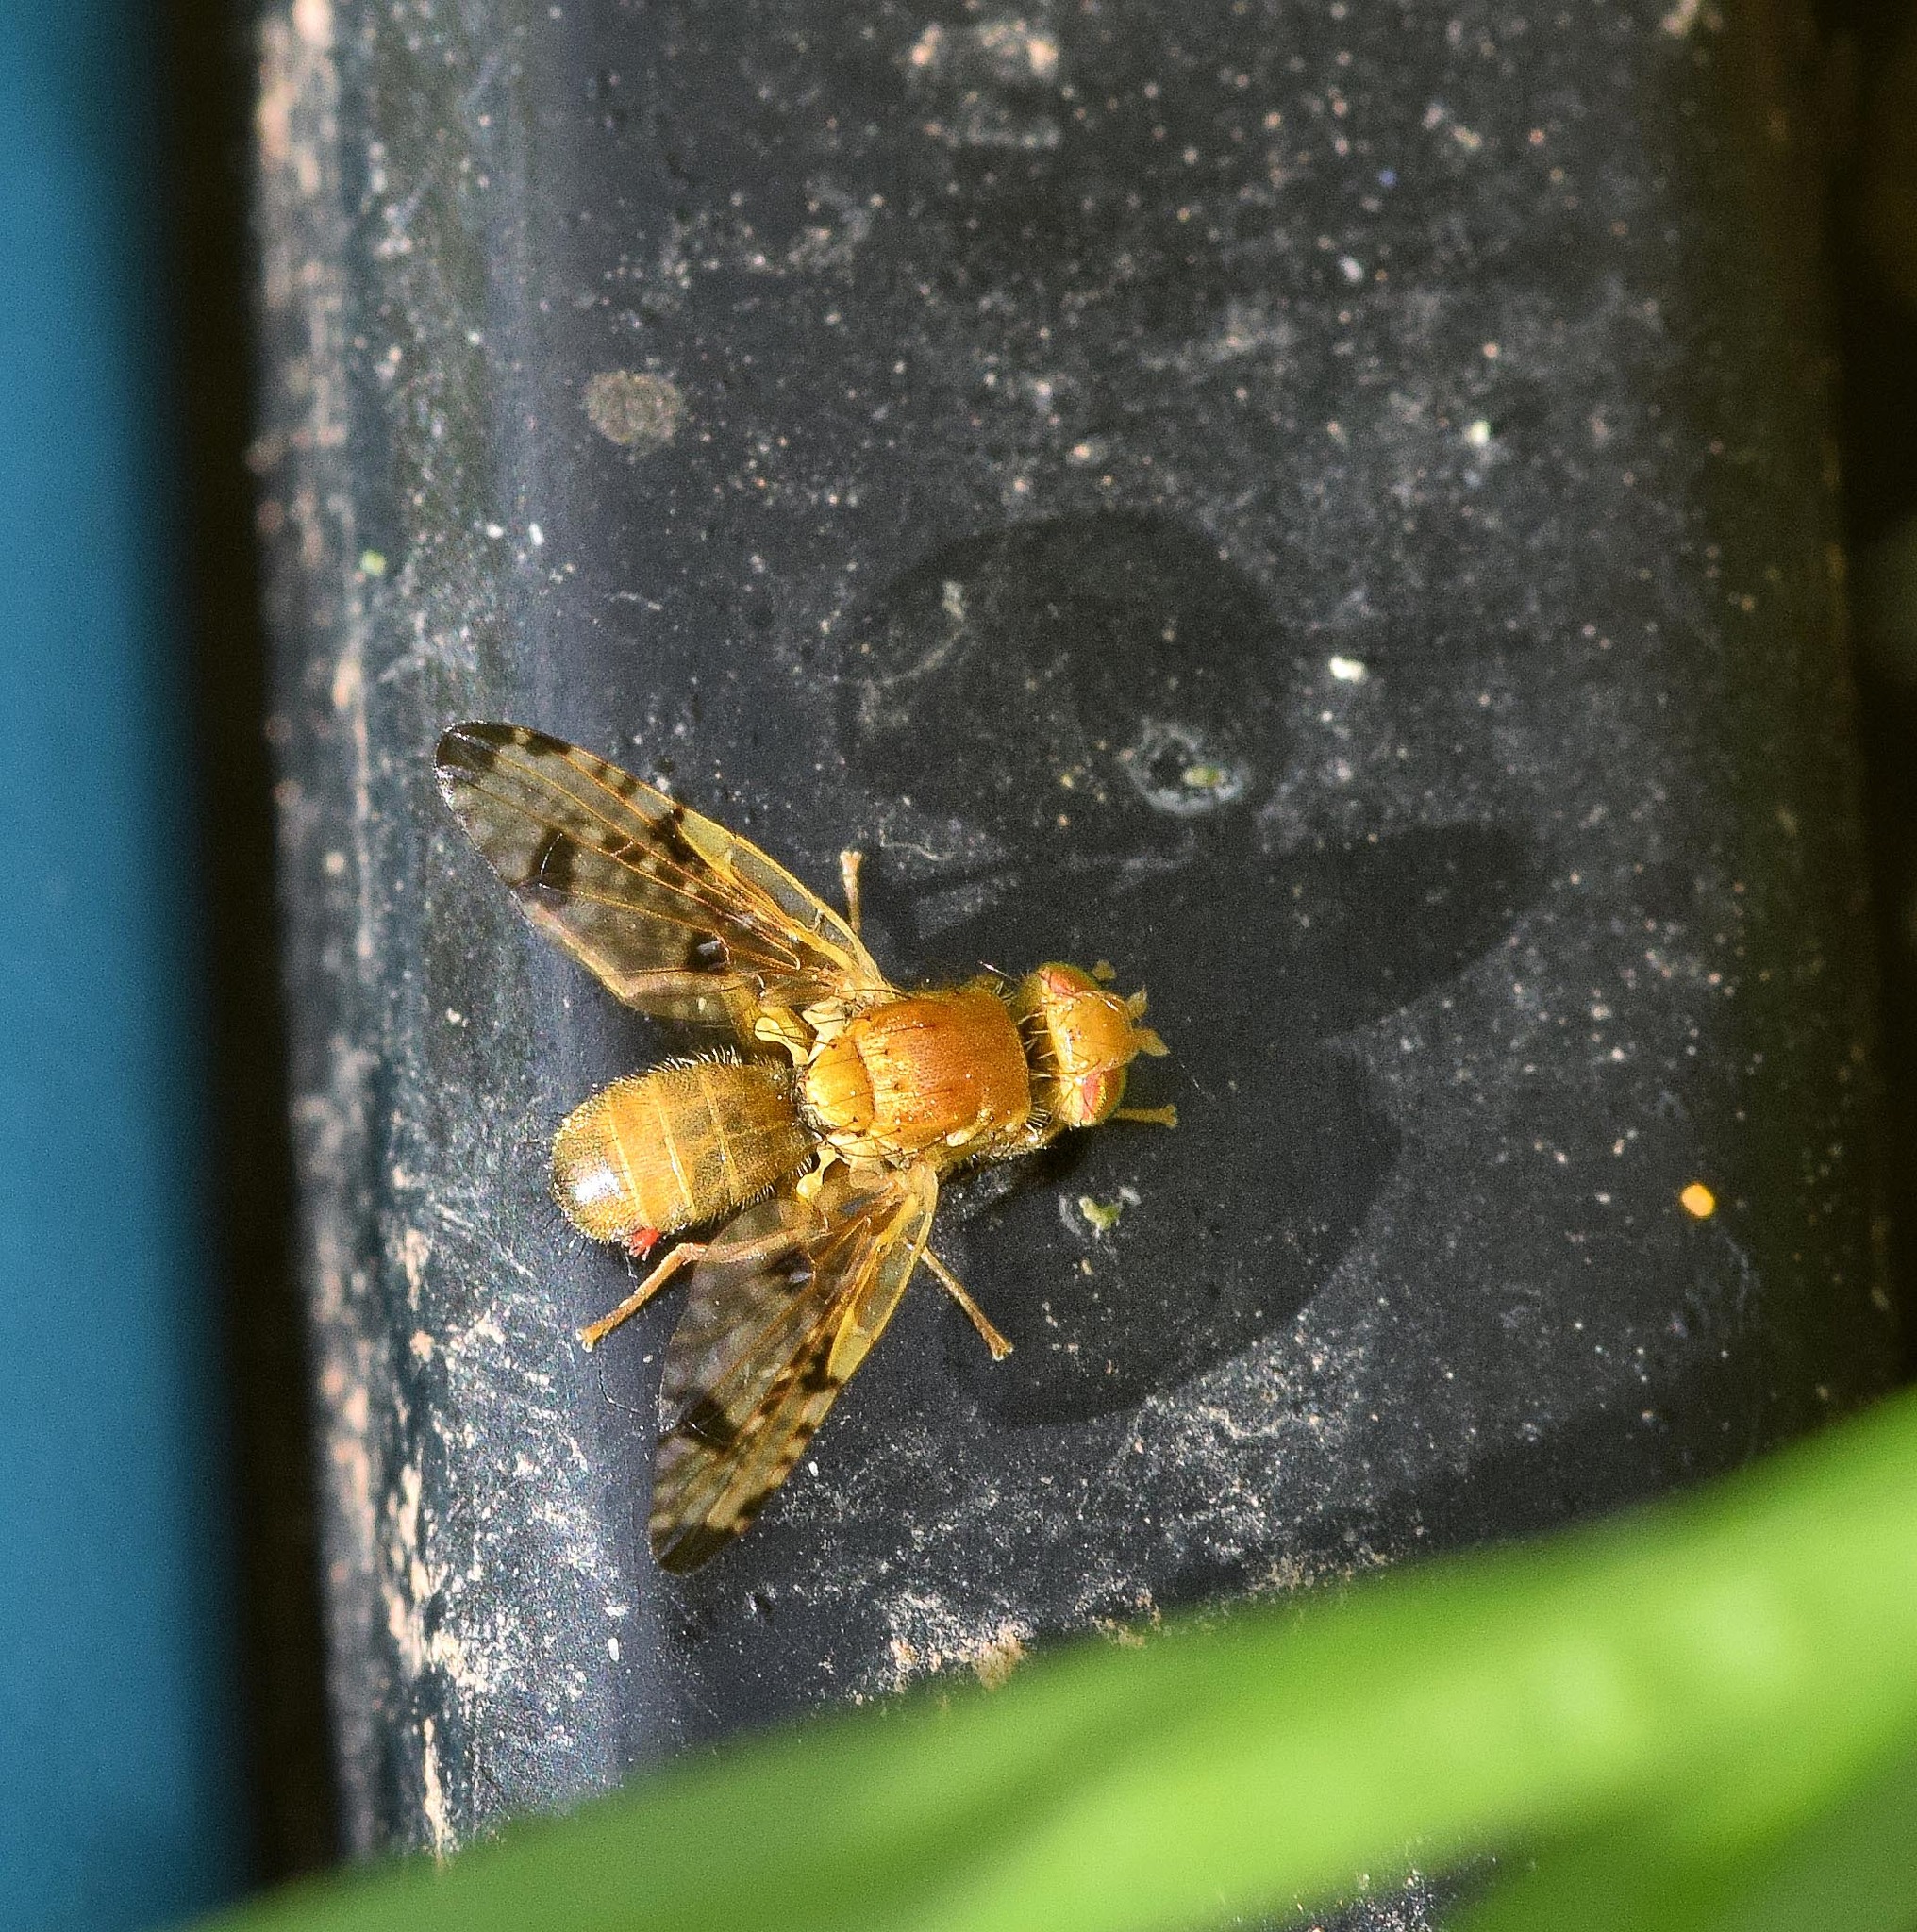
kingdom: Animalia
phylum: Arthropoda
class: Insecta
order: Diptera
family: Tephritidae
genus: Xyphosia
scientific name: Xyphosia miliaria
